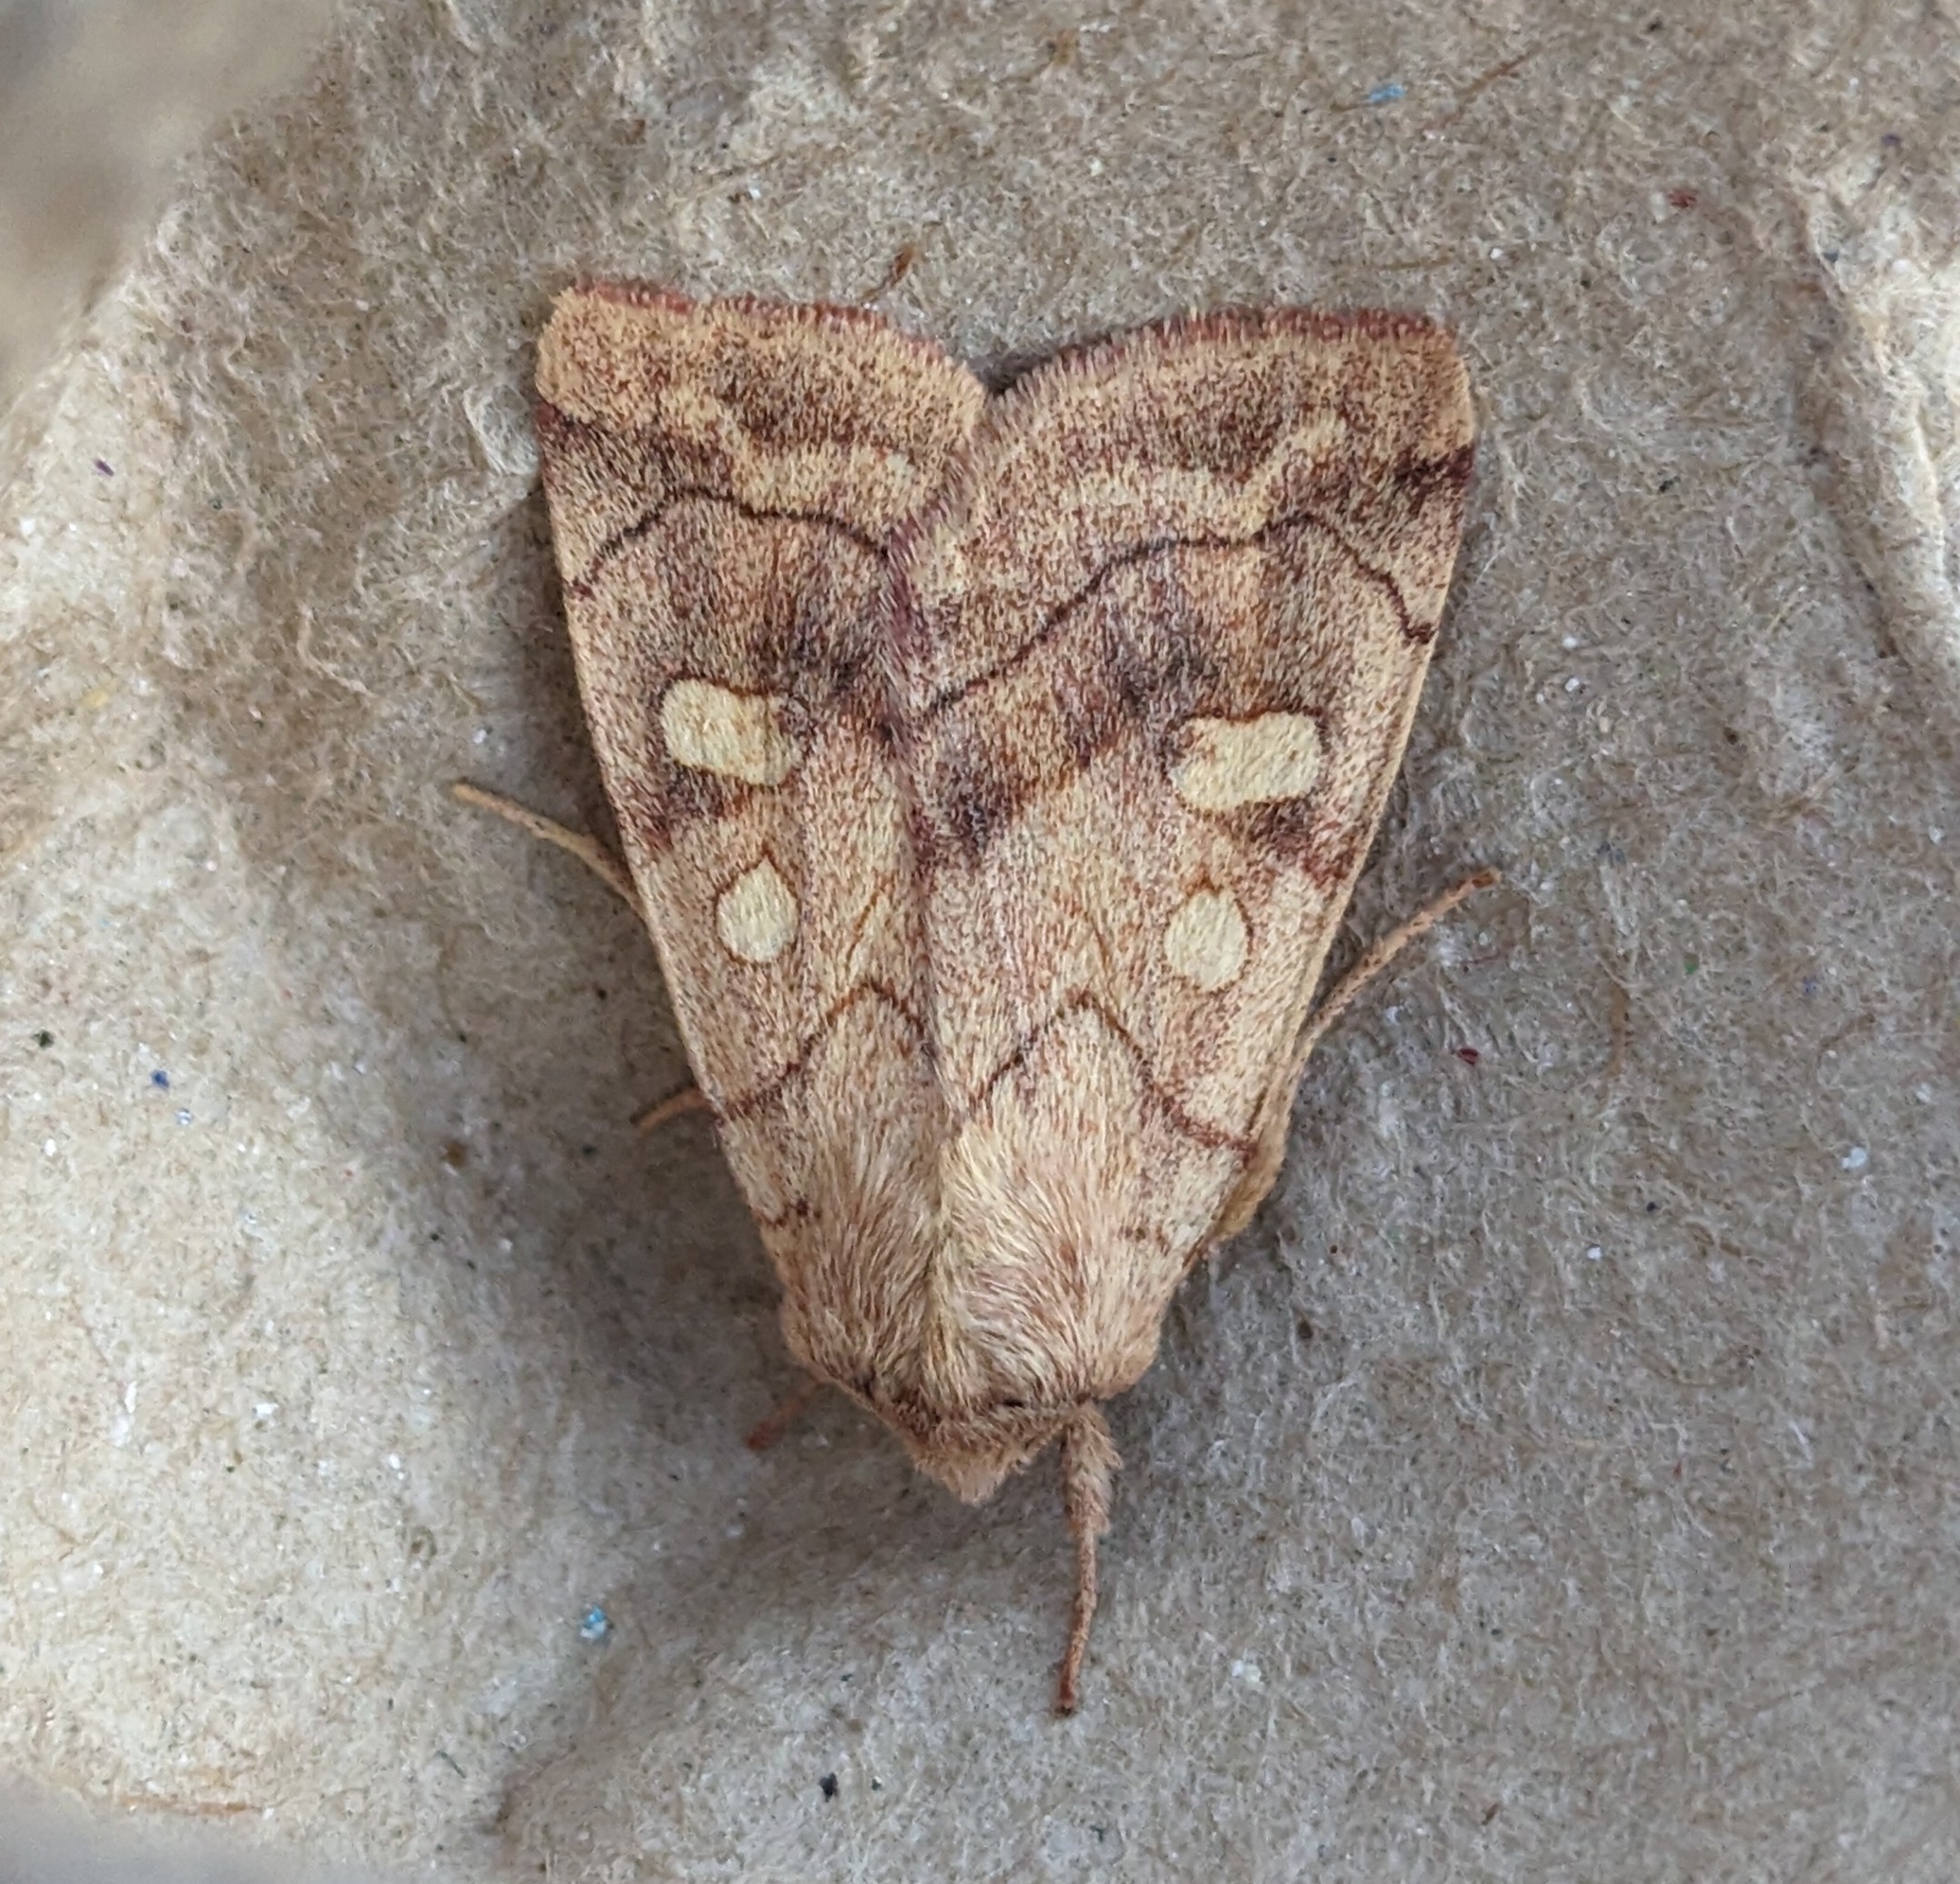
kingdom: Animalia
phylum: Arthropoda
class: Insecta
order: Lepidoptera
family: Noctuidae
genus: Enargia
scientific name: Enargia decolor
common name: Aspen twoleaf tier moth
